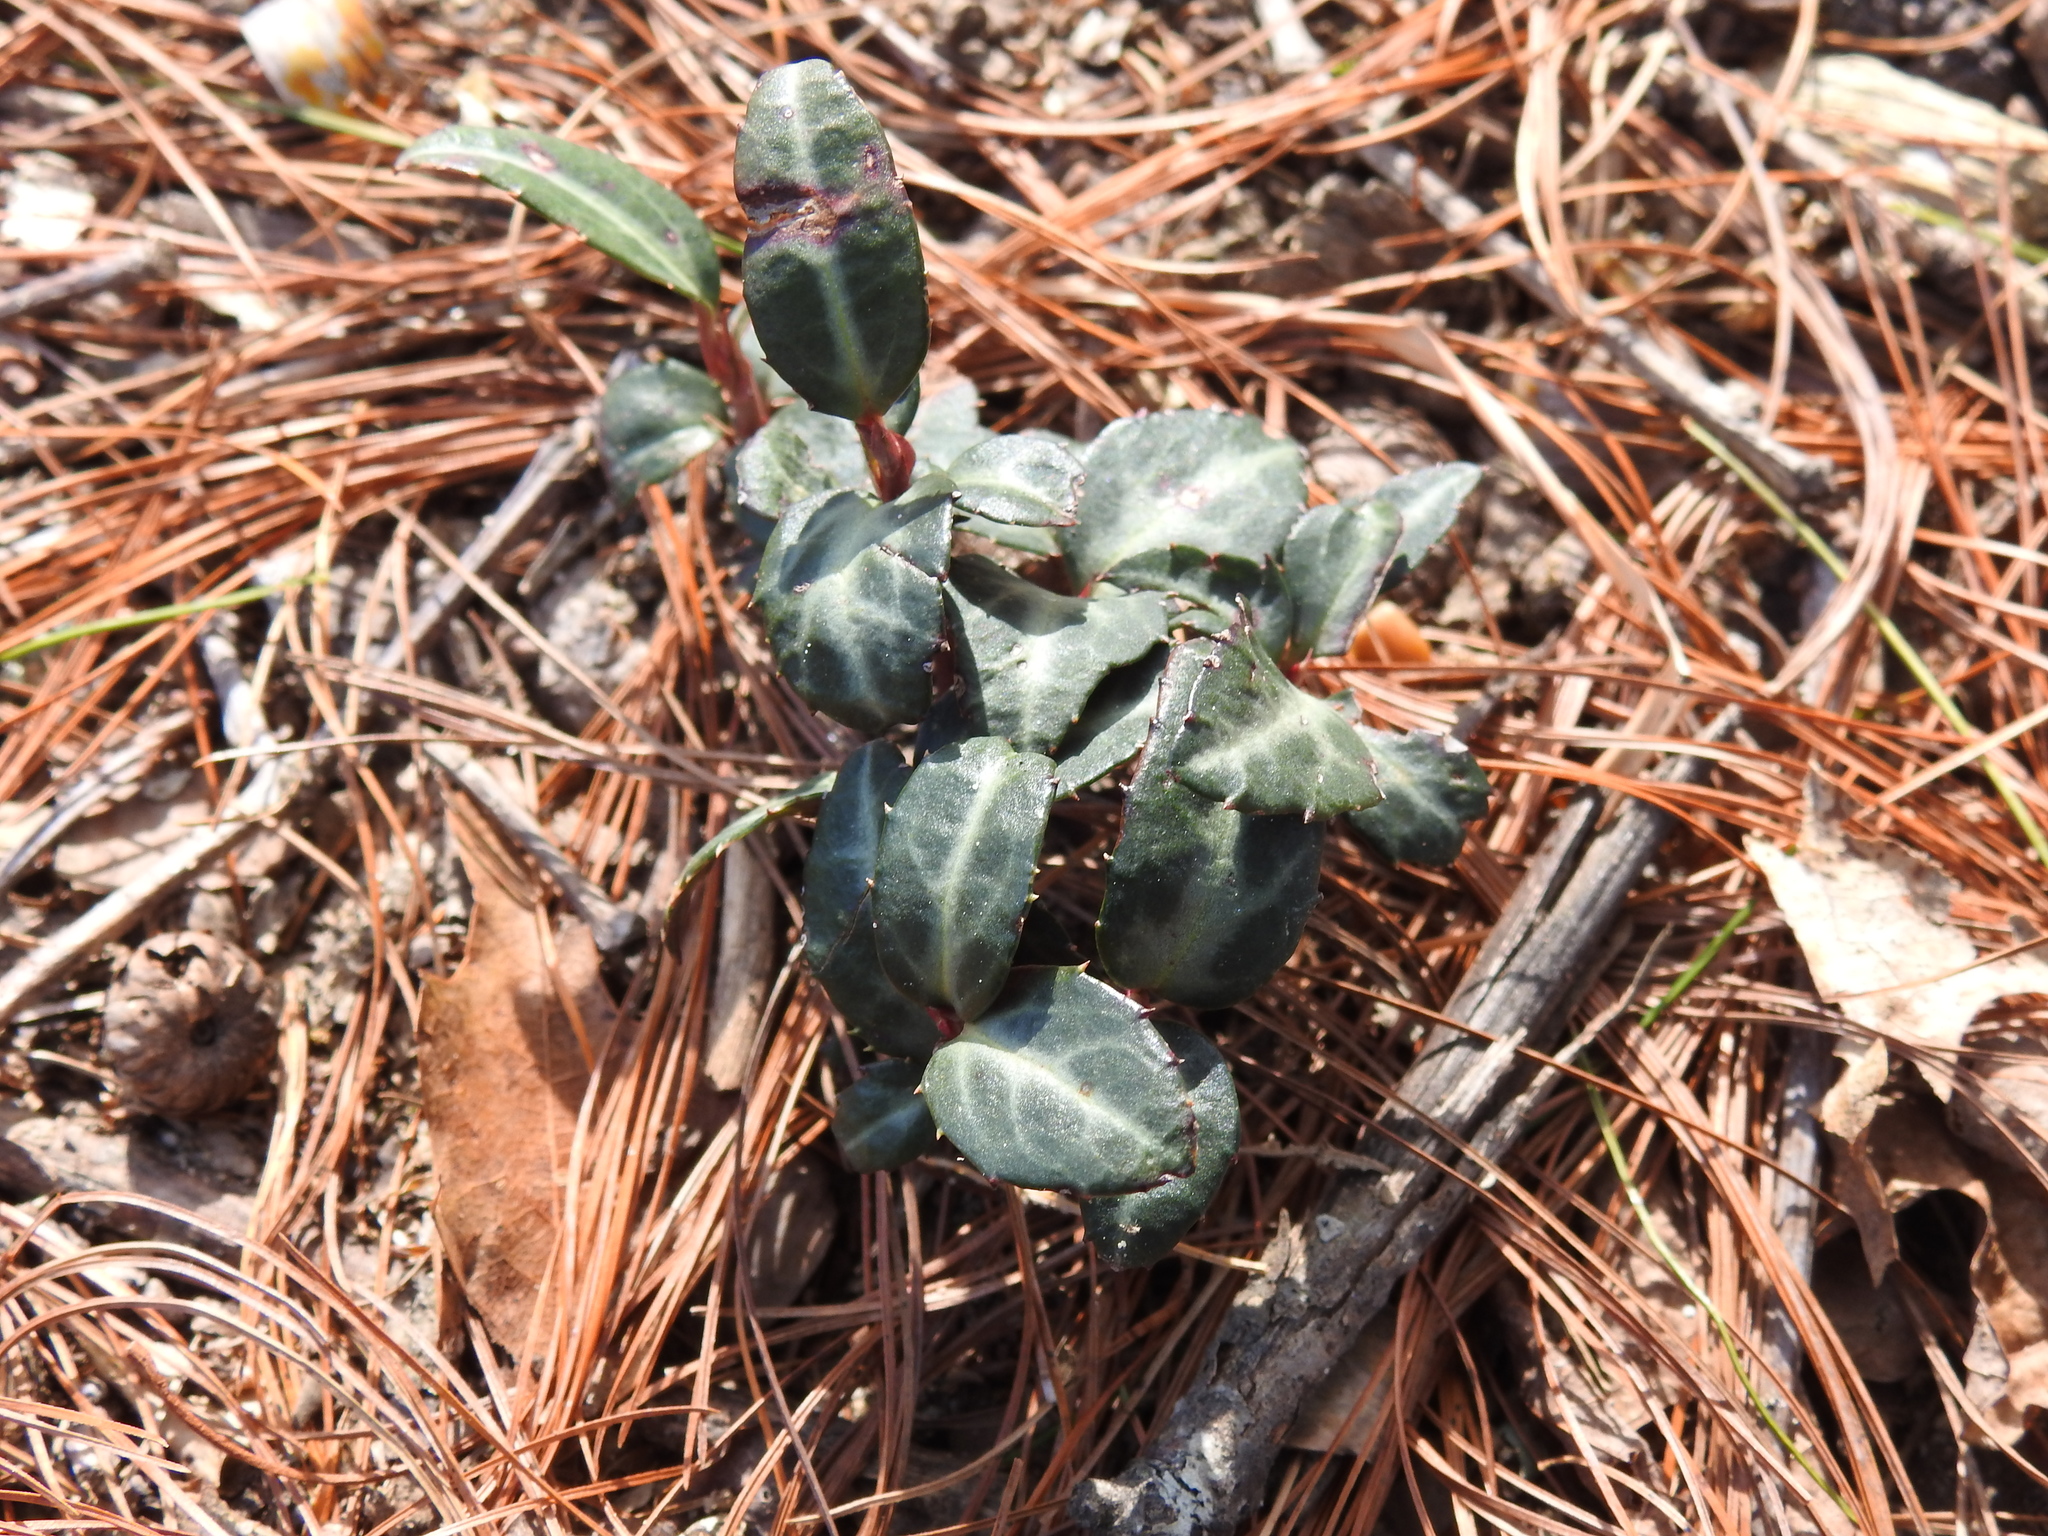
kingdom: Plantae
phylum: Tracheophyta
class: Magnoliopsida
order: Ericales
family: Ericaceae
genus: Chimaphila
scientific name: Chimaphila maculata
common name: Spotted pipsissewa
